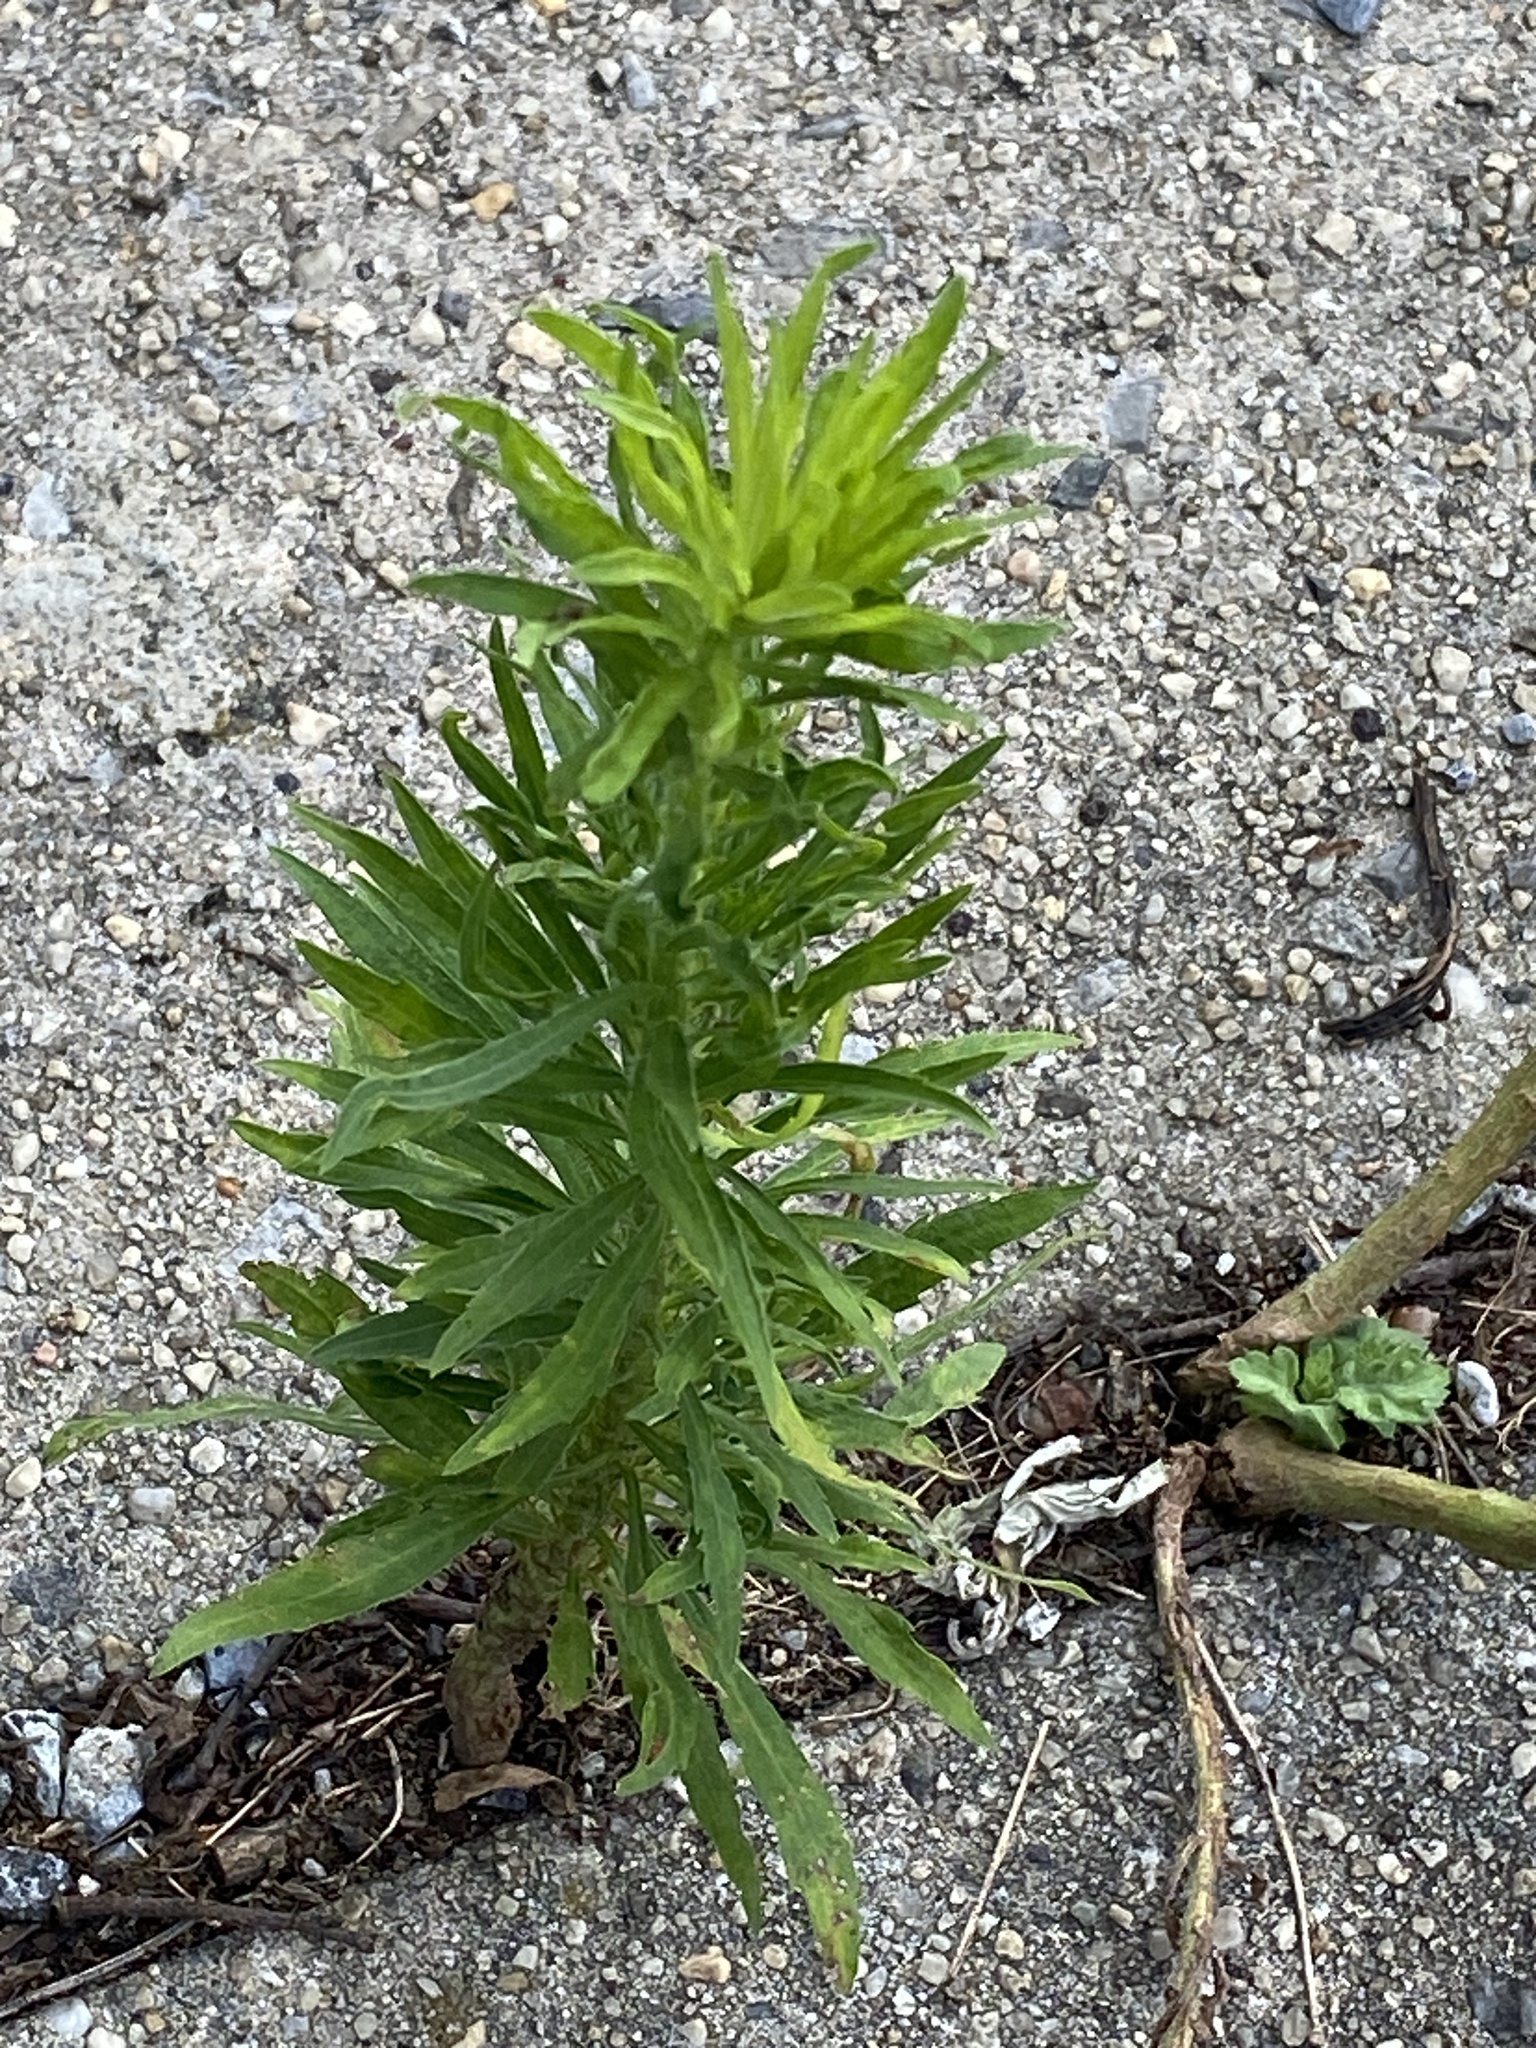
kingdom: Plantae
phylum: Tracheophyta
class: Magnoliopsida
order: Asterales
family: Asteraceae
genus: Erigeron
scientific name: Erigeron canadensis
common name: Canadian fleabane
